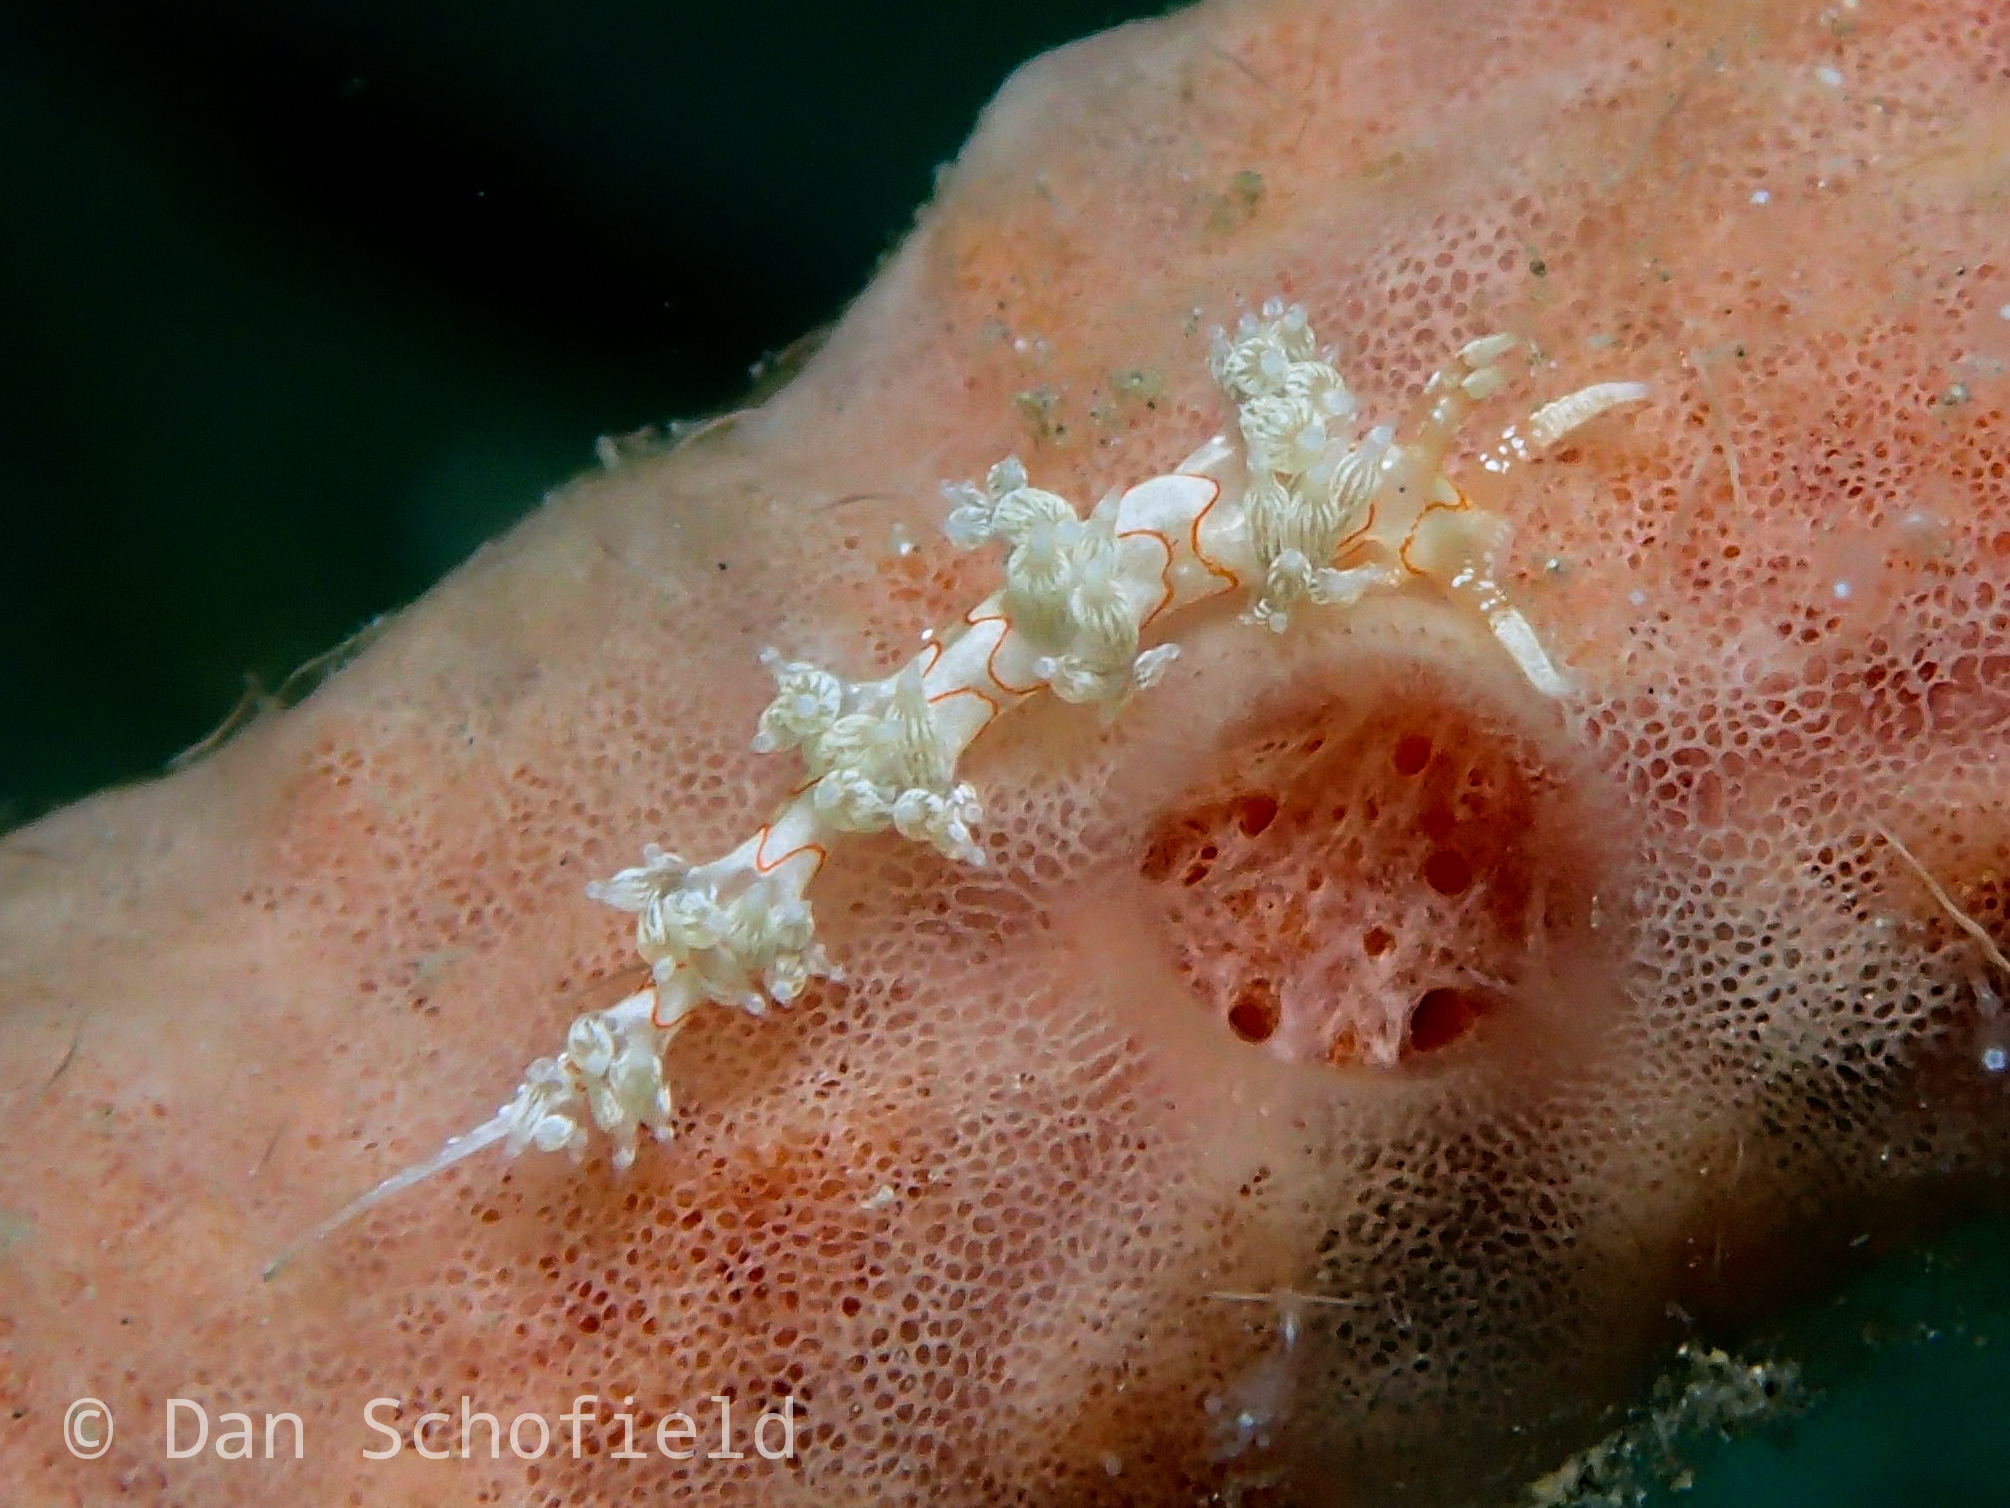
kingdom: Animalia
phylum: Mollusca
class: Gastropoda
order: Nudibranchia
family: Facelinidae
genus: Cratena
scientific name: Cratena simba
